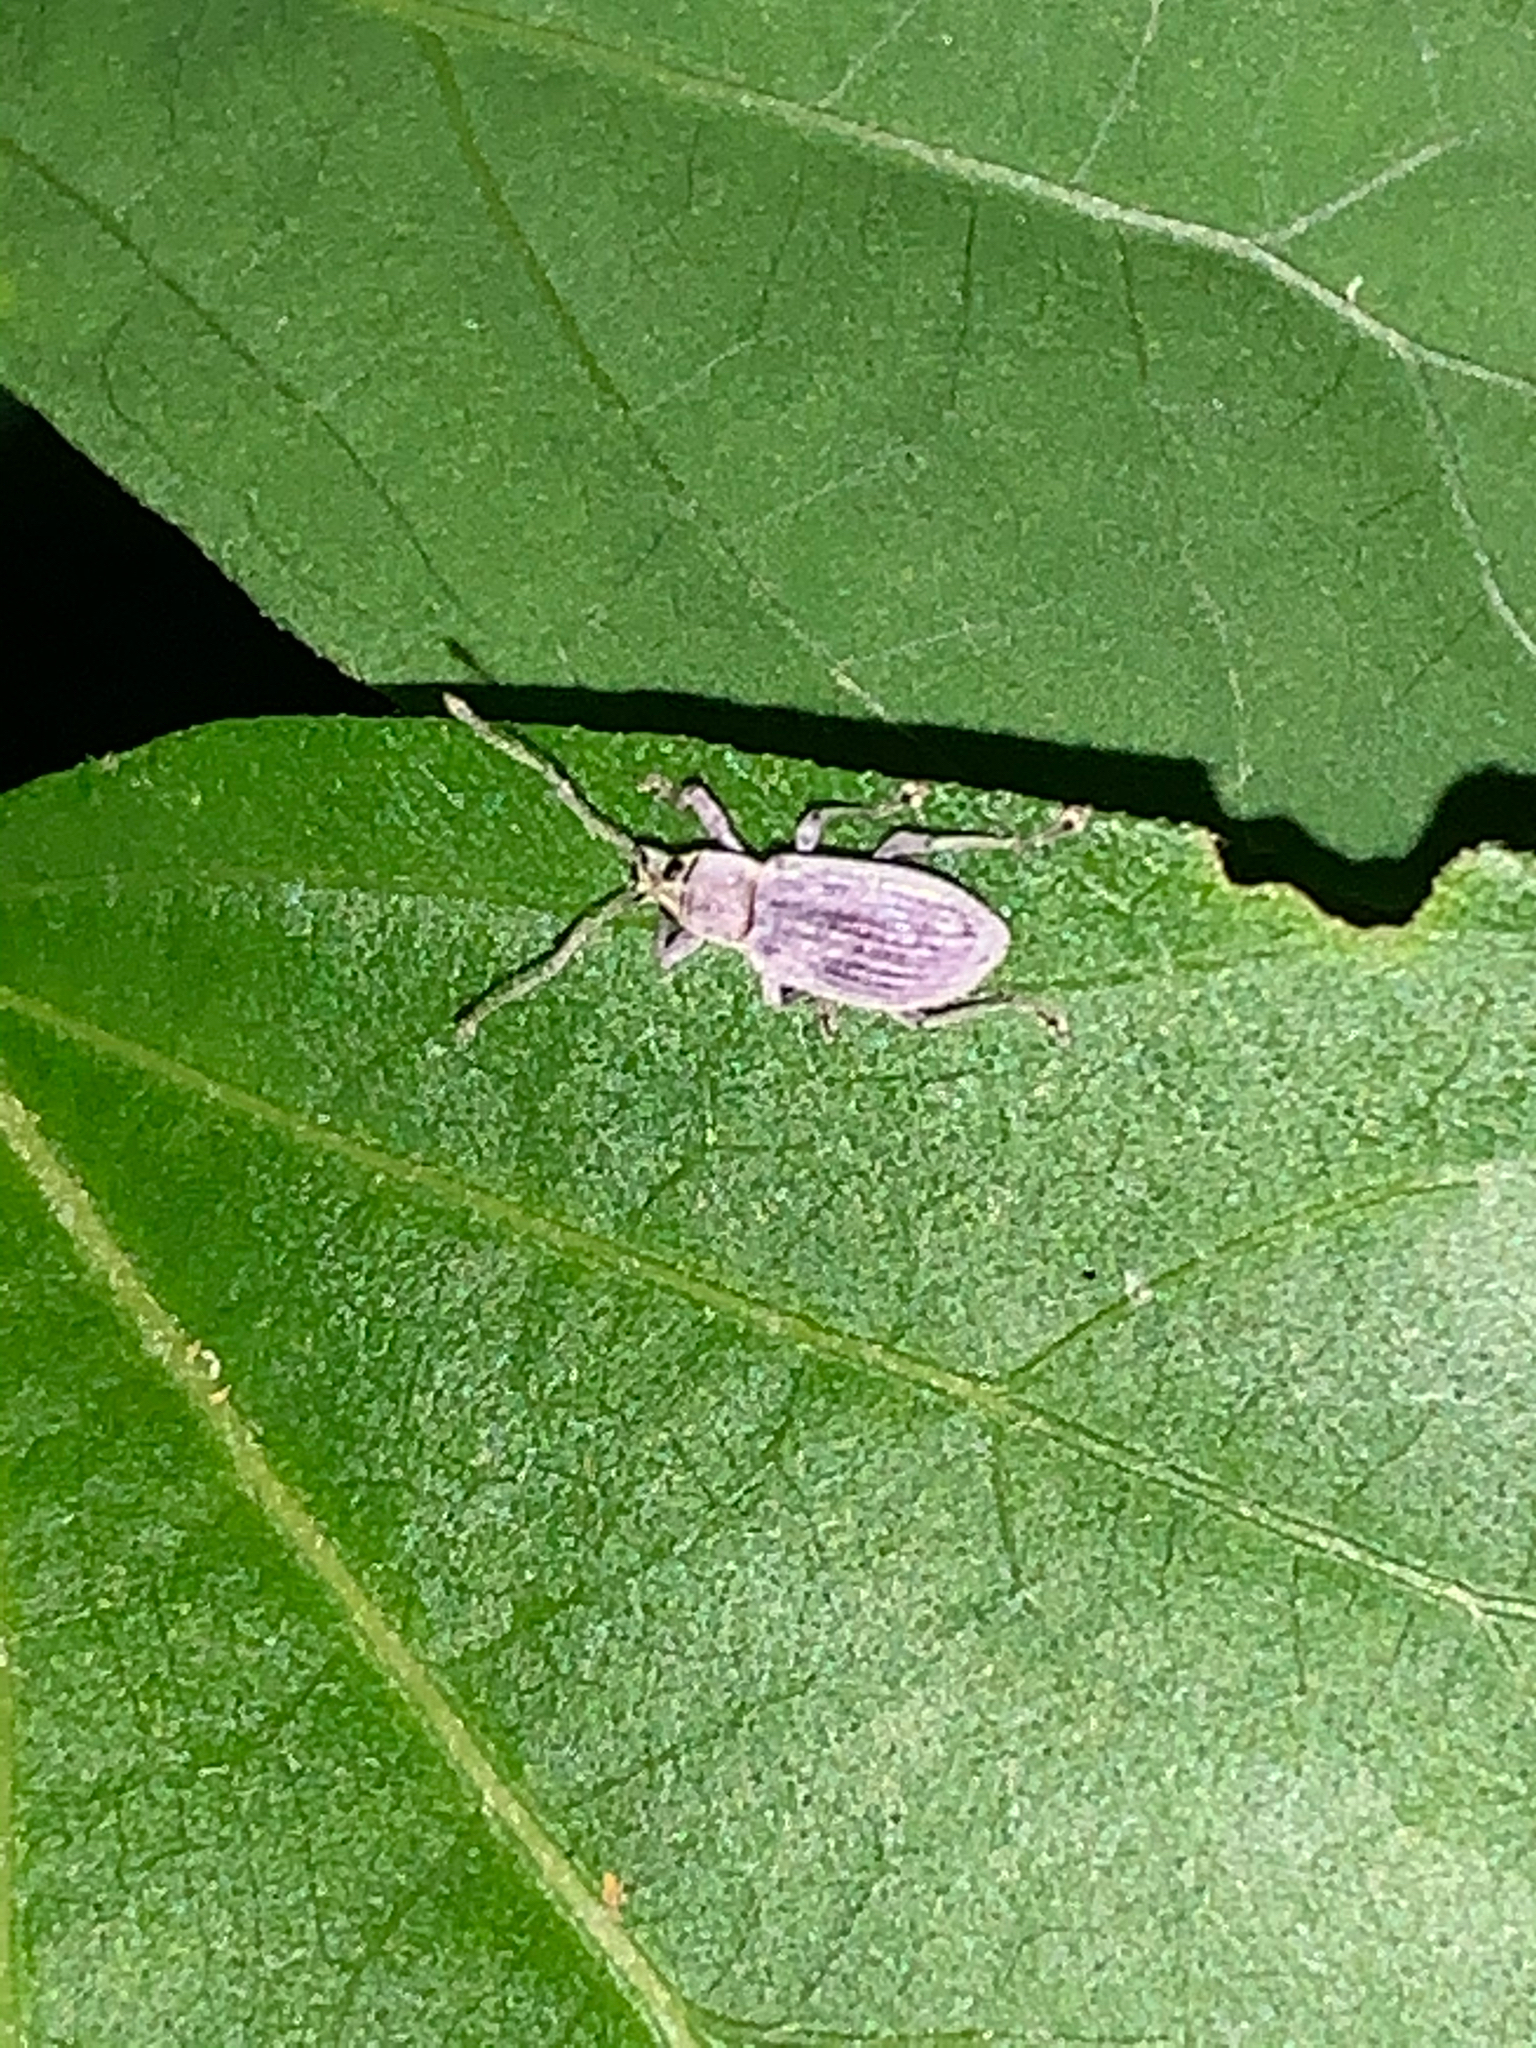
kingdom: Animalia
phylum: Arthropoda
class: Insecta
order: Coleoptera
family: Curculionidae
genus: Cyrtepistomus
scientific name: Cyrtepistomus castaneus
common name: Weevil
